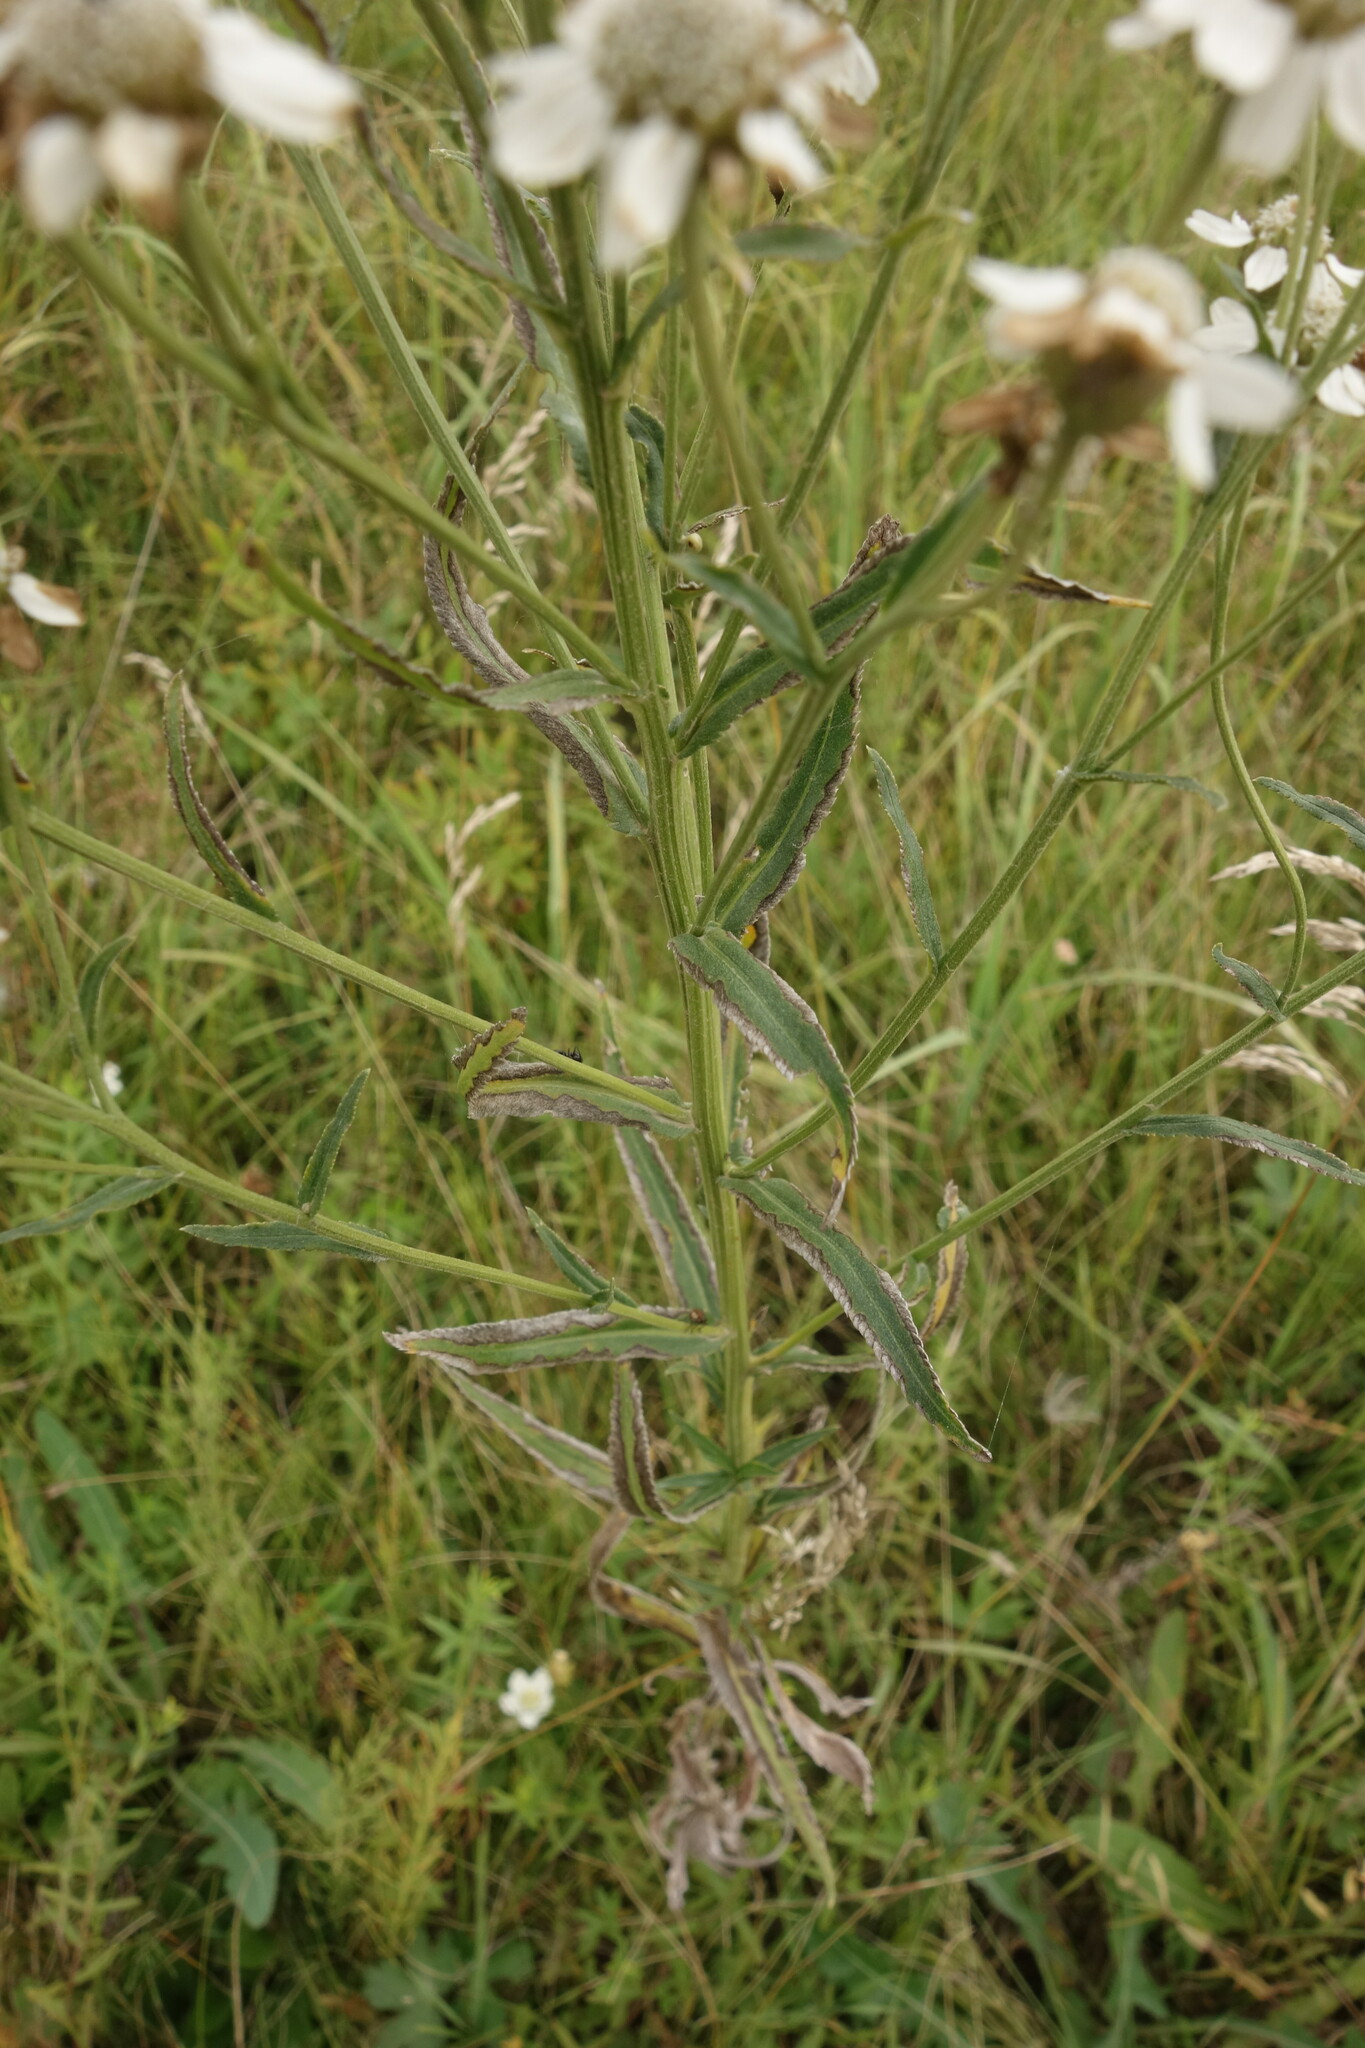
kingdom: Plantae
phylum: Tracheophyta
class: Magnoliopsida
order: Asterales
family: Asteraceae
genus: Achillea
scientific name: Achillea acuminata
